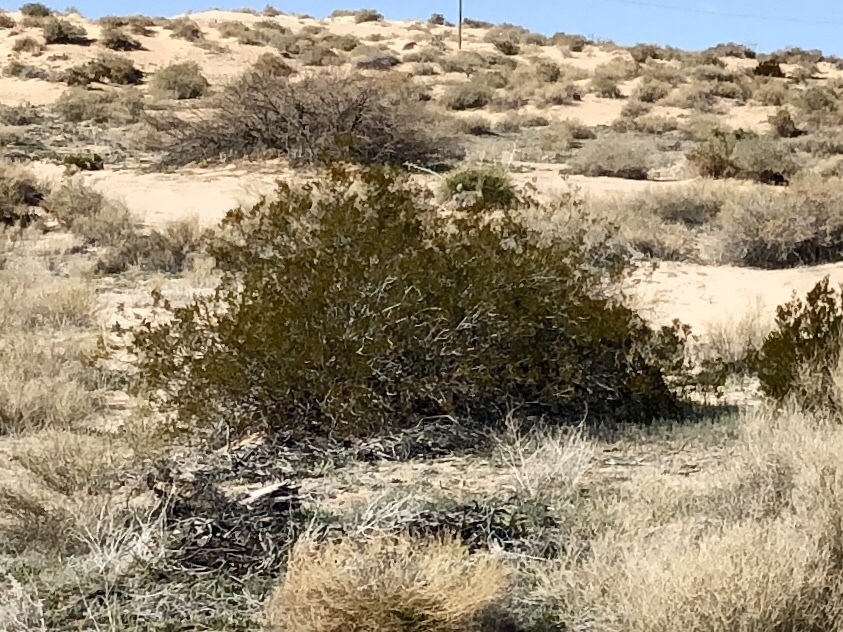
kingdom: Plantae
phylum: Tracheophyta
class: Magnoliopsida
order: Zygophyllales
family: Zygophyllaceae
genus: Larrea
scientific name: Larrea tridentata
